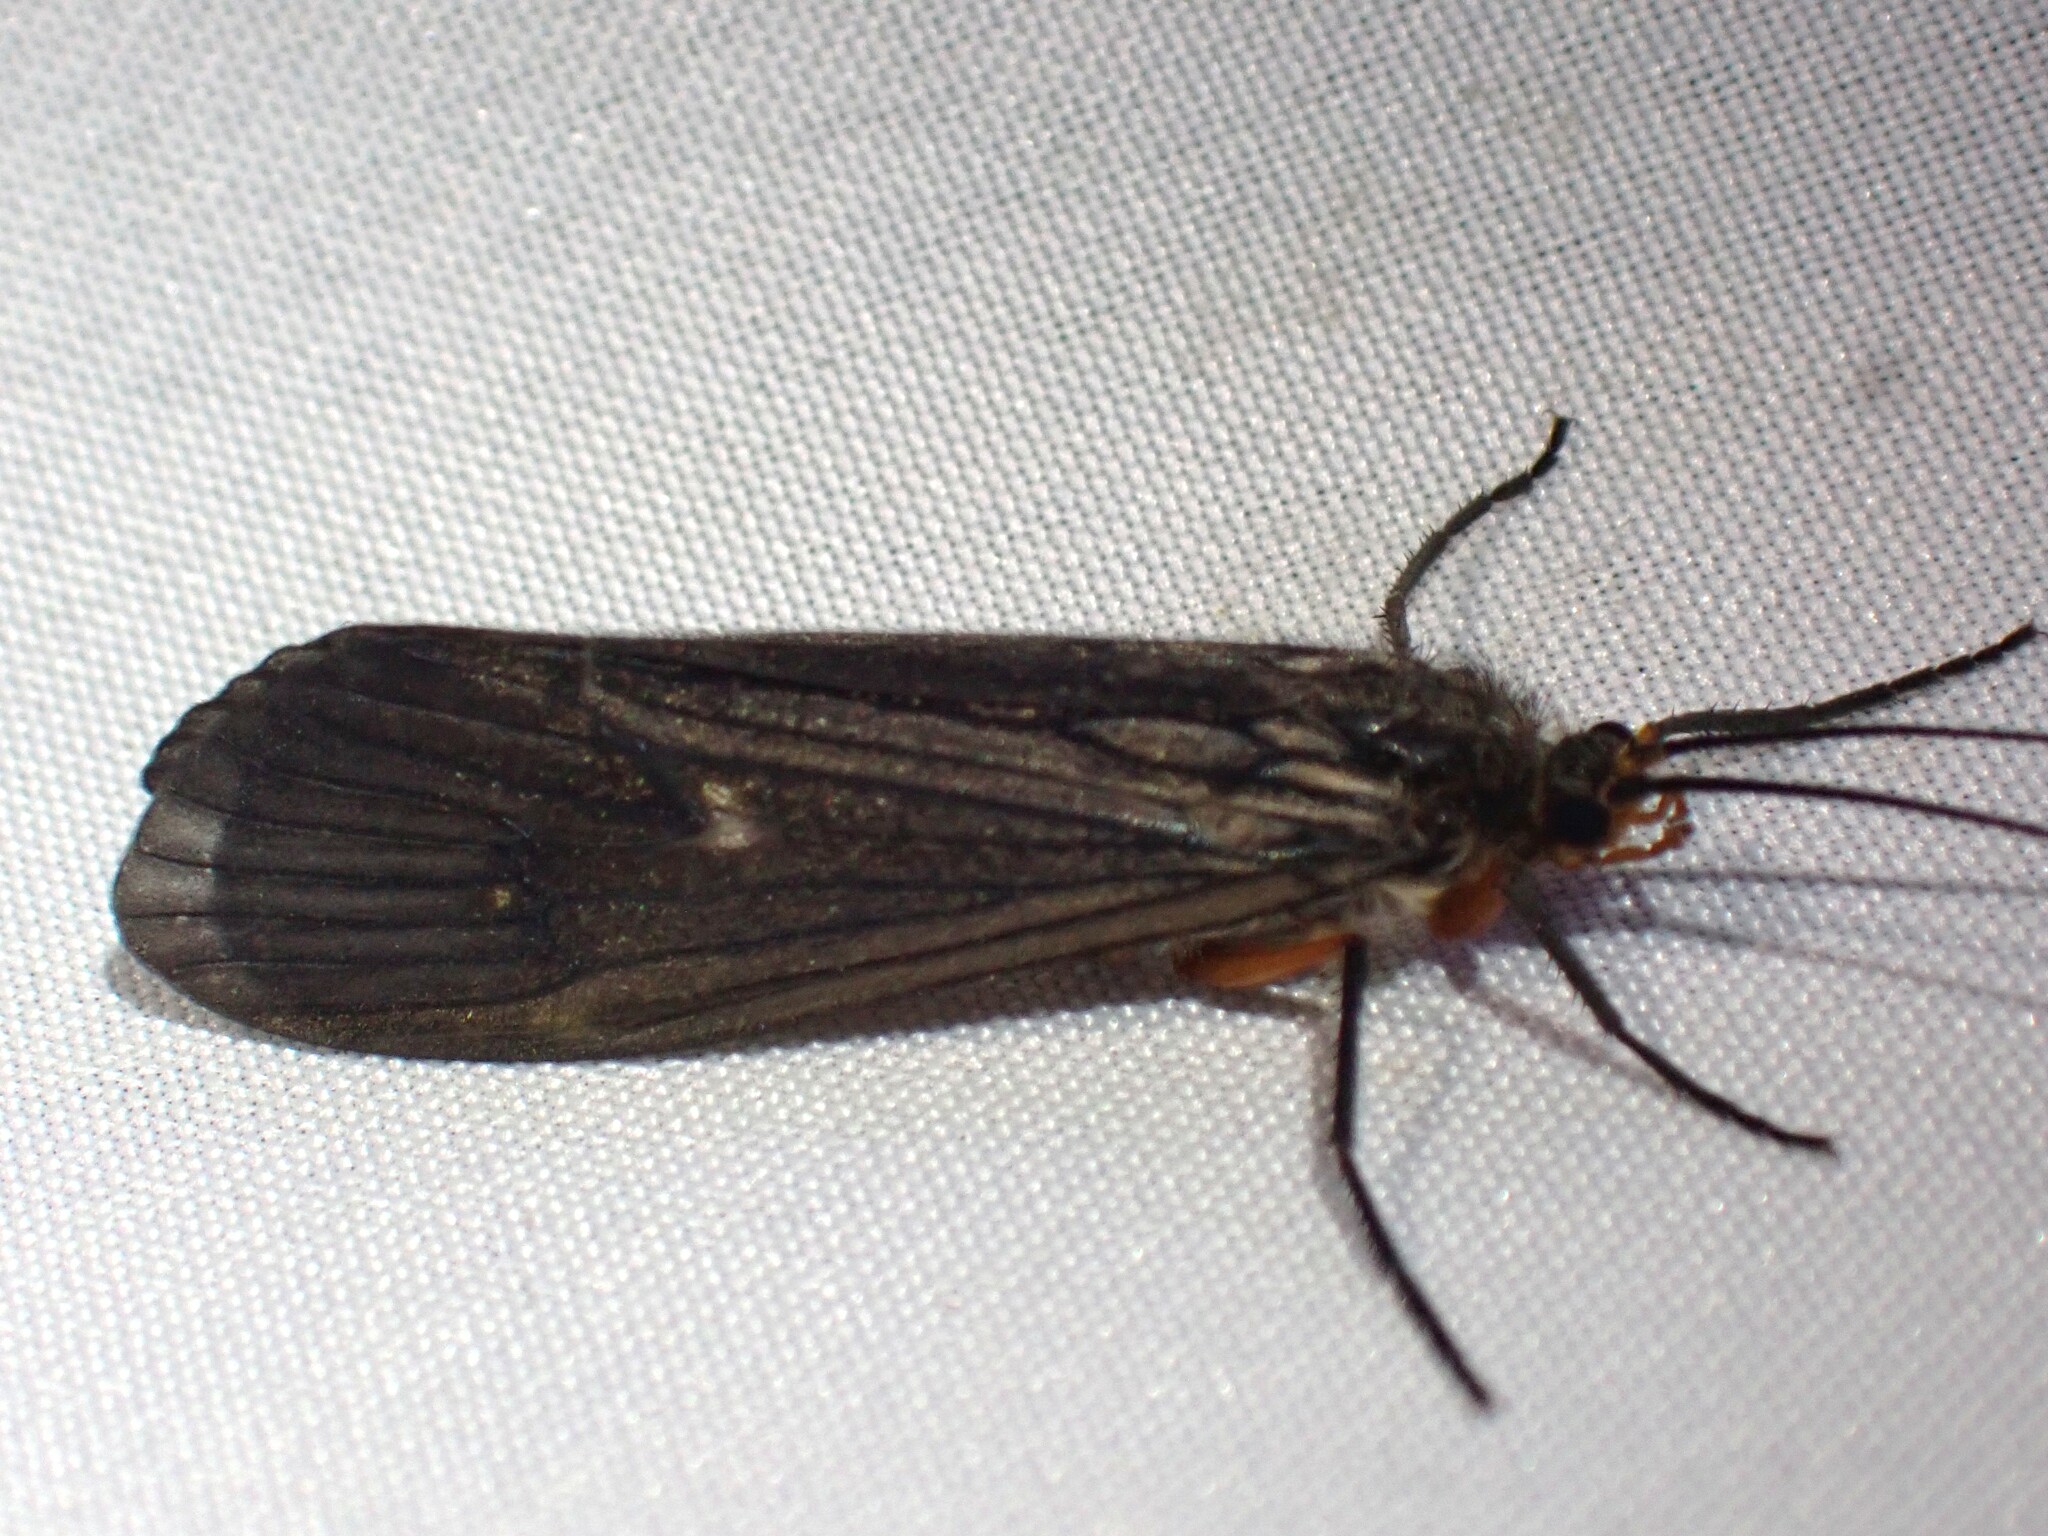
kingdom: Animalia
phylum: Arthropoda
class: Insecta
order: Trichoptera
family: Limnephilidae
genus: Dicosmoecus
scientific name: Dicosmoecus atripes
